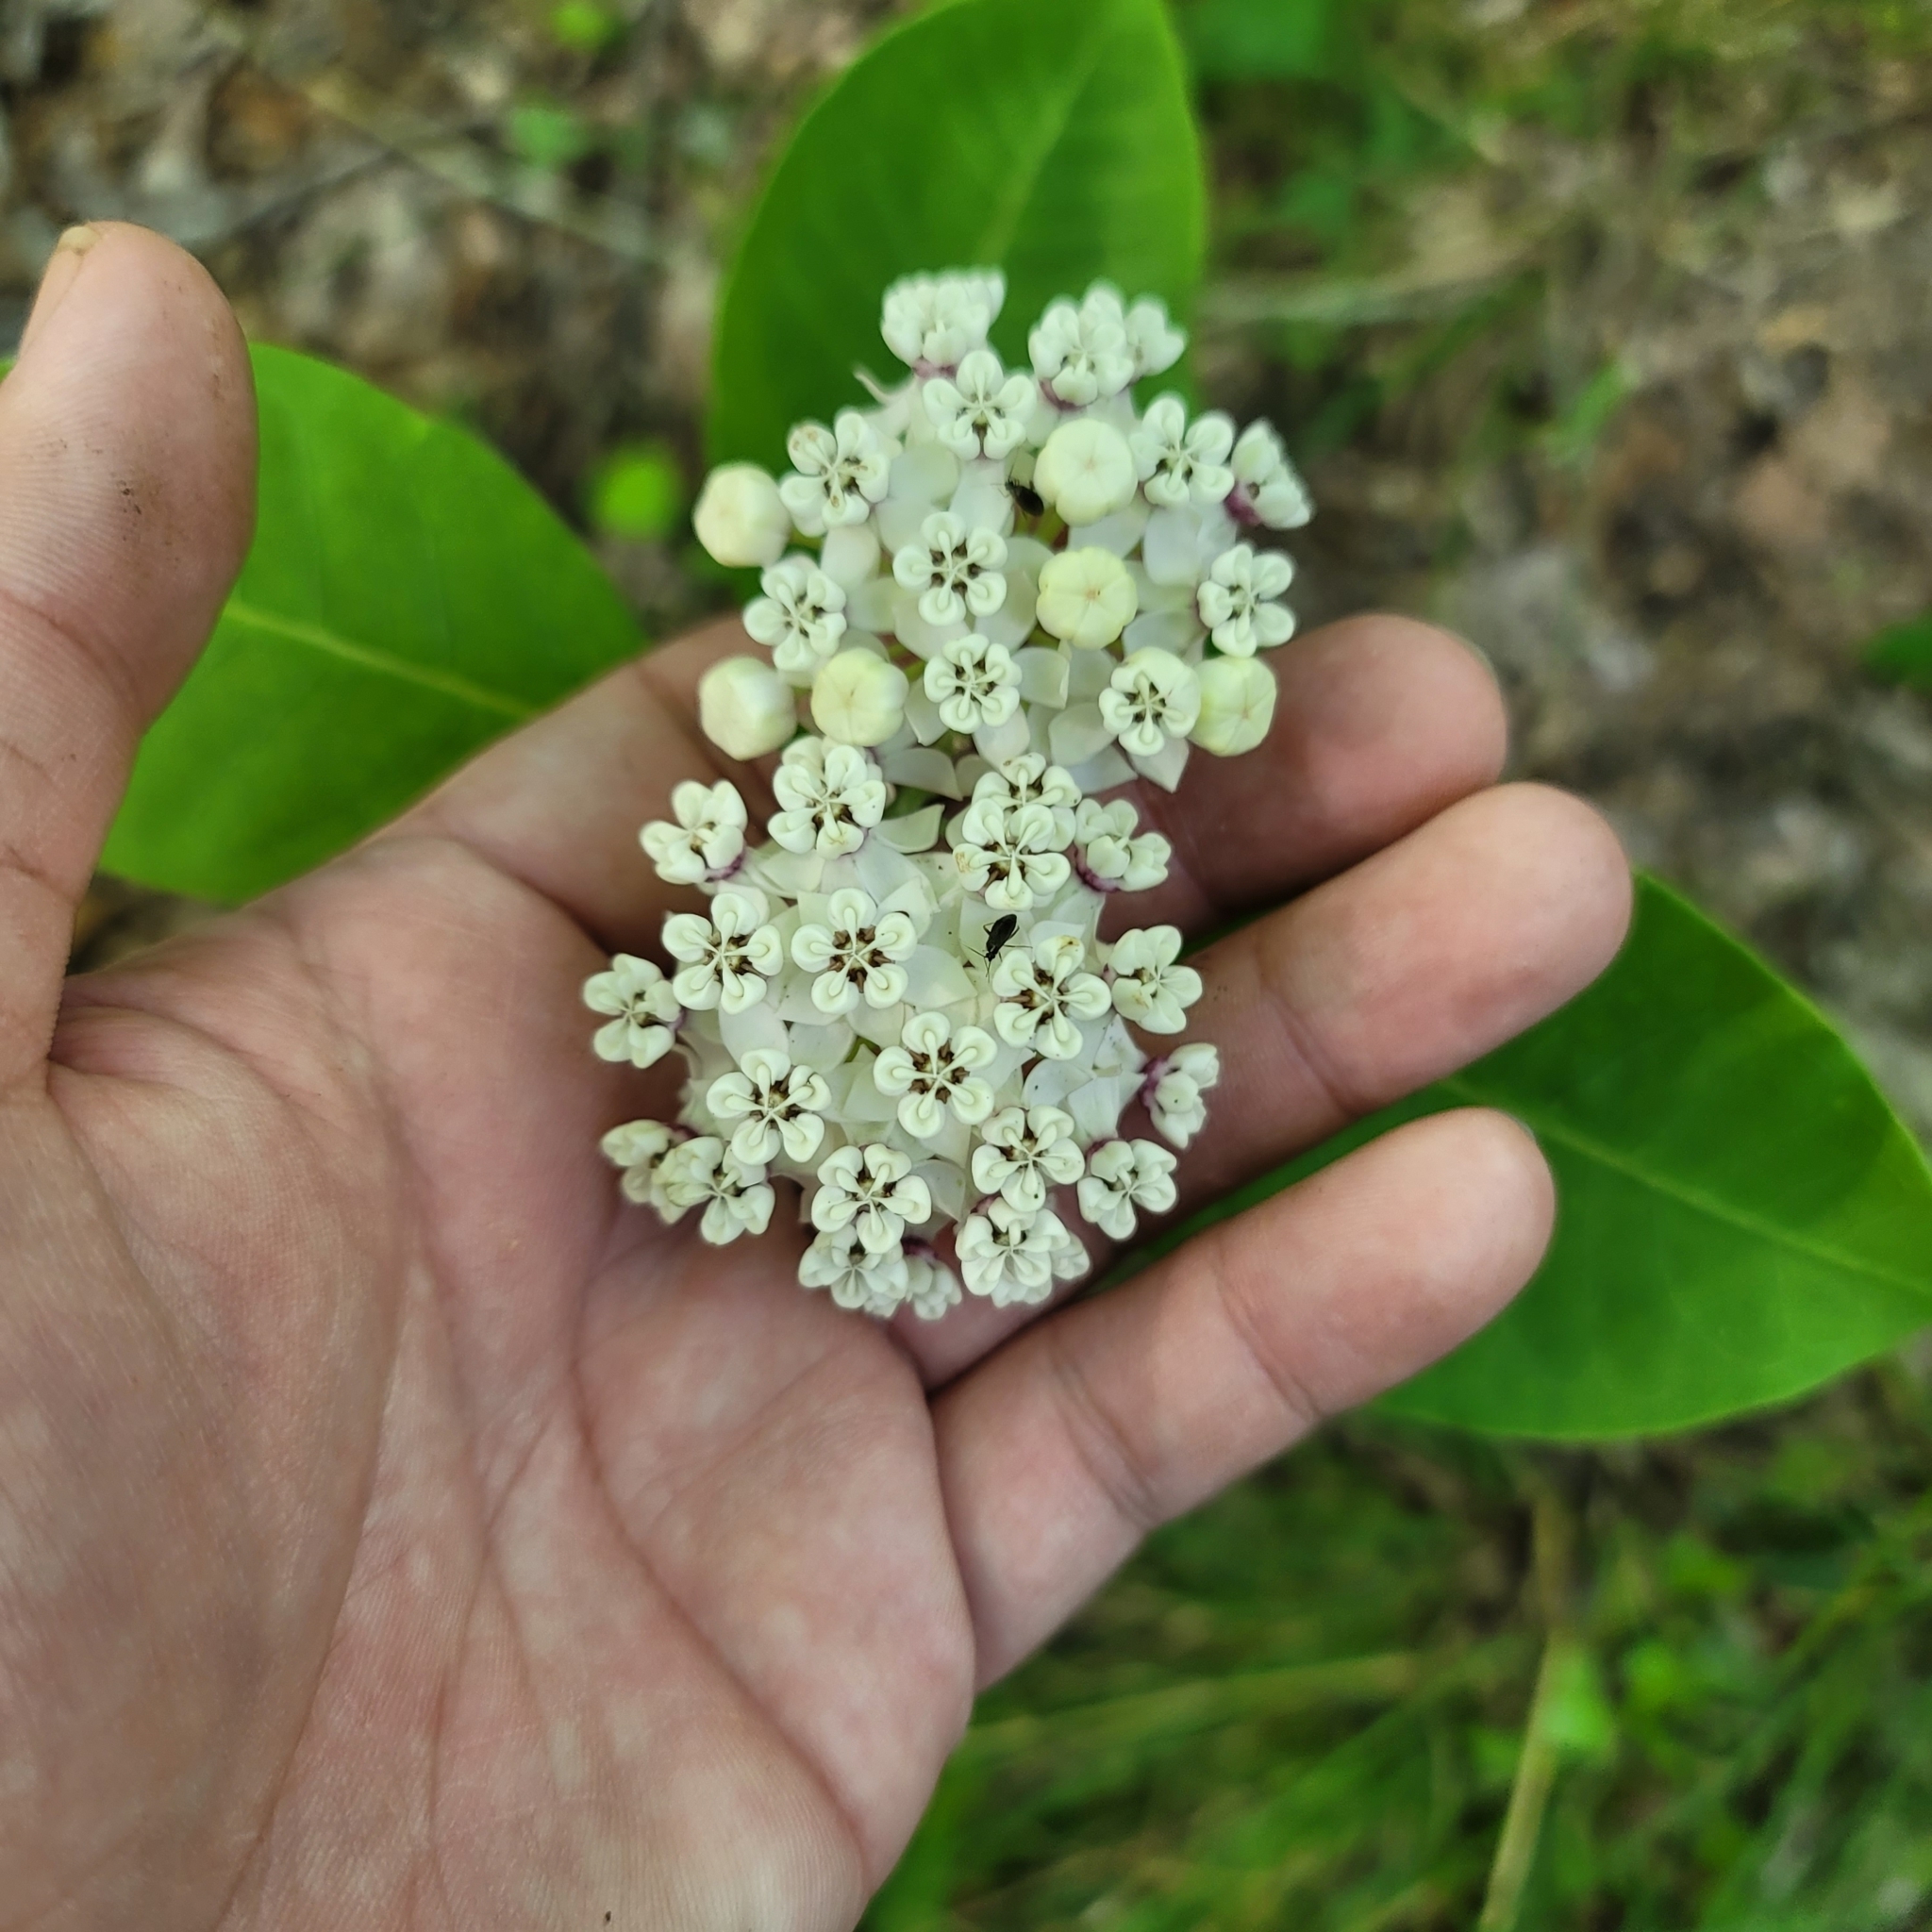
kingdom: Plantae
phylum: Tracheophyta
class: Magnoliopsida
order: Gentianales
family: Apocynaceae
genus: Asclepias
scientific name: Asclepias variegata
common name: Variegated milkweed
